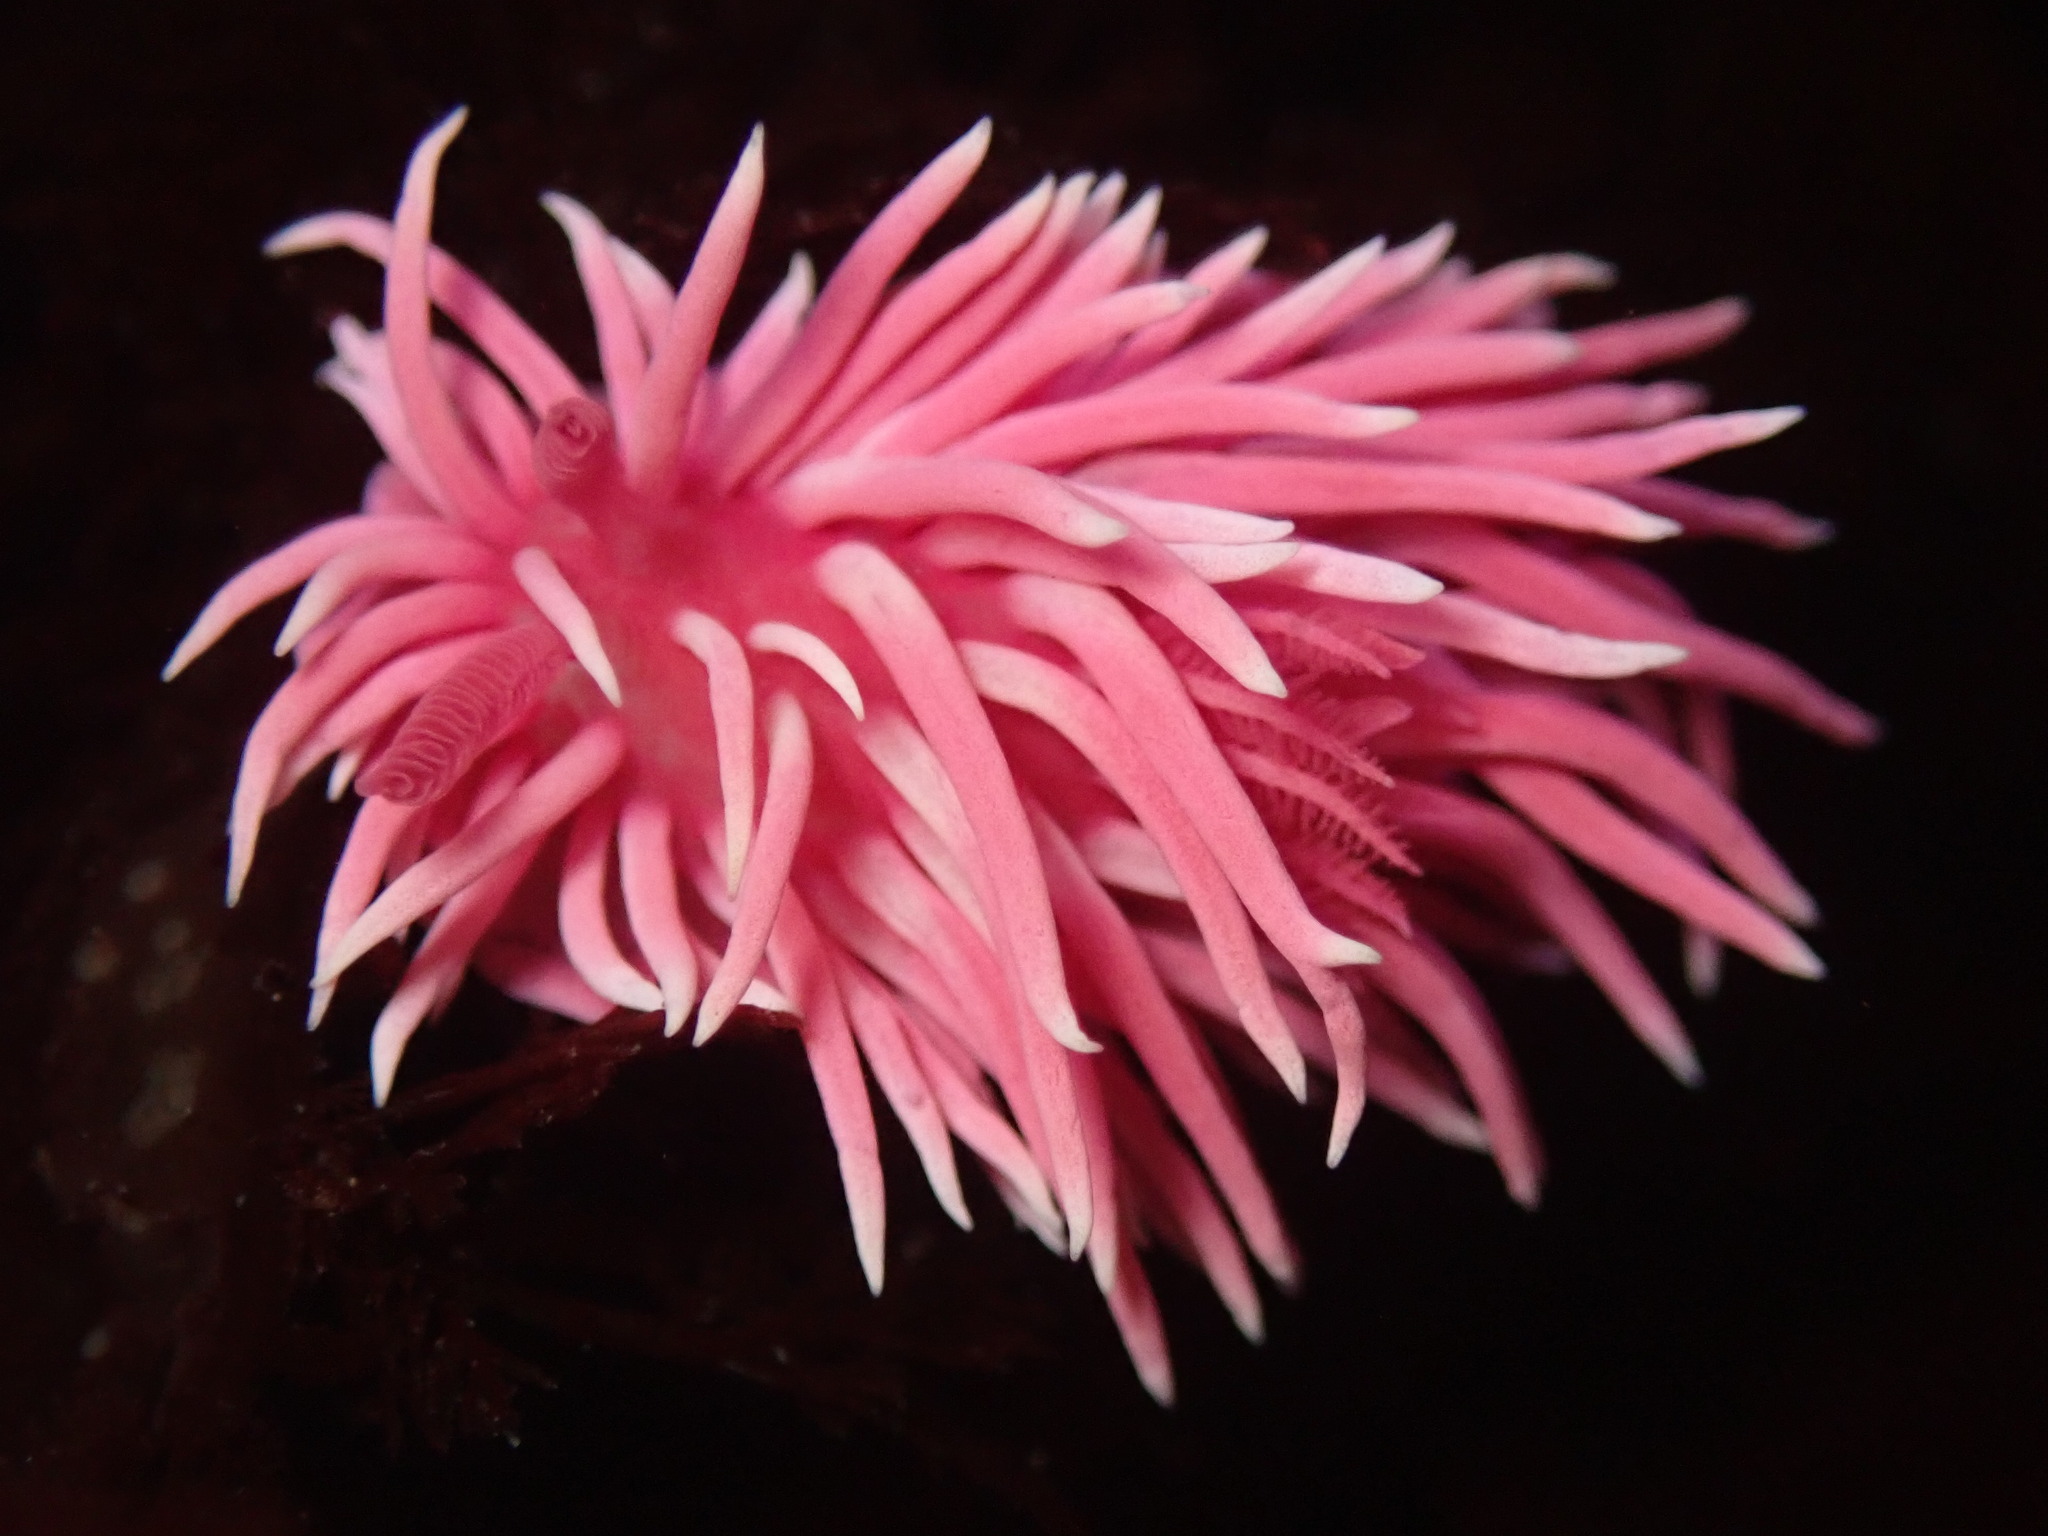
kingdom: Animalia
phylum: Mollusca
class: Gastropoda
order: Nudibranchia
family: Goniodorididae
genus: Okenia
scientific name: Okenia
